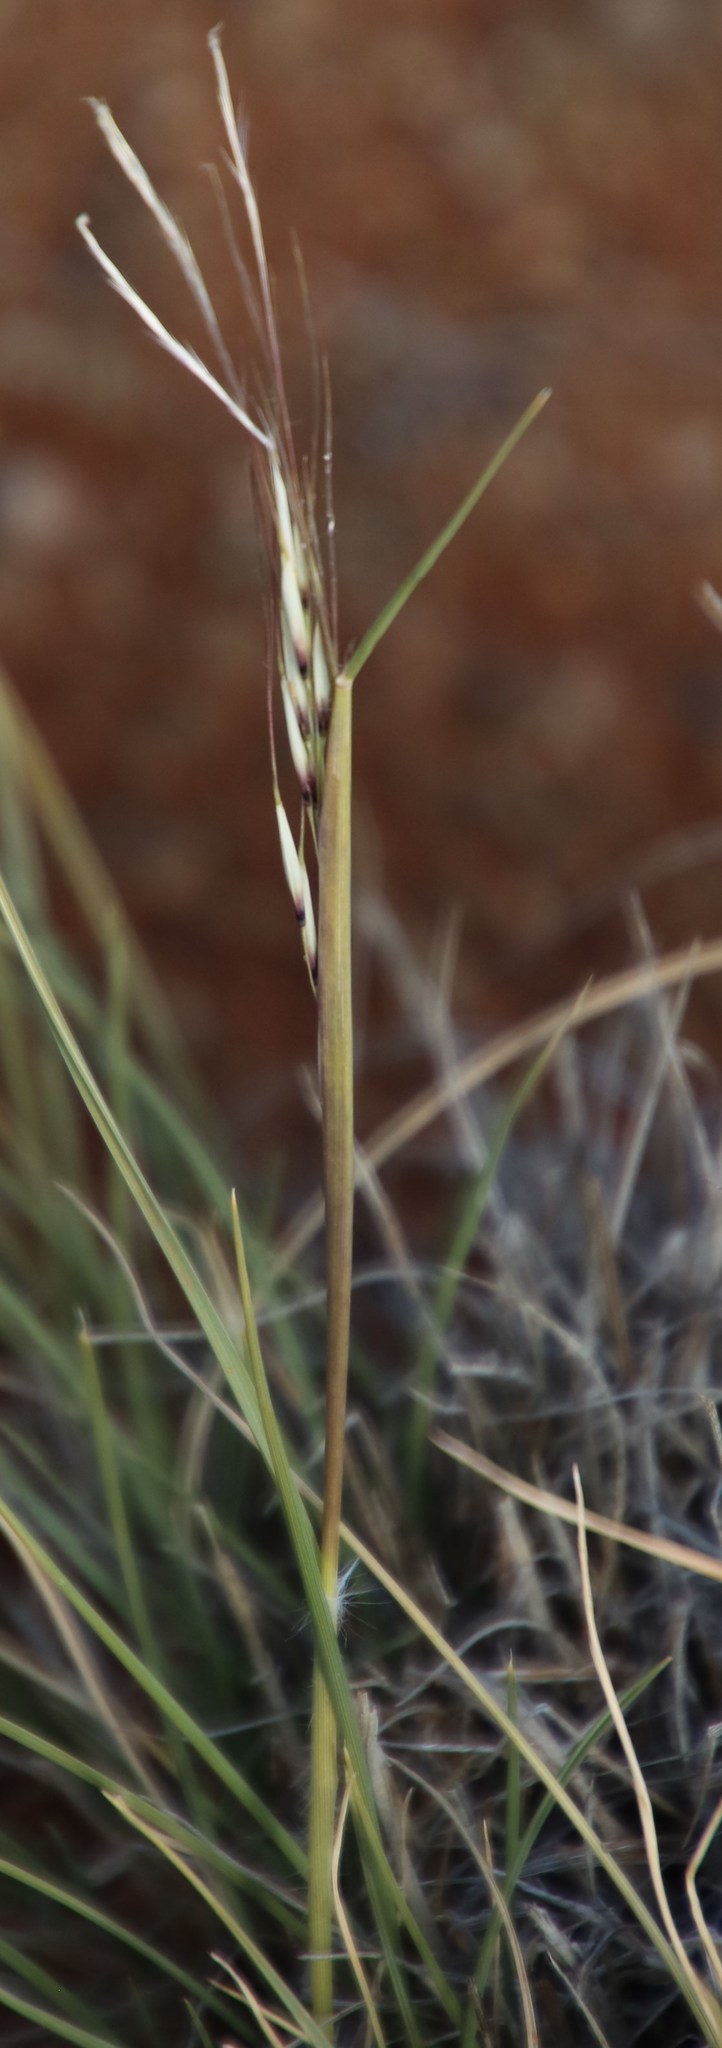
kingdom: Plantae
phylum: Tracheophyta
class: Liliopsida
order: Poales
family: Poaceae
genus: Stipagrostis
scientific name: Stipagrostis ciliata
